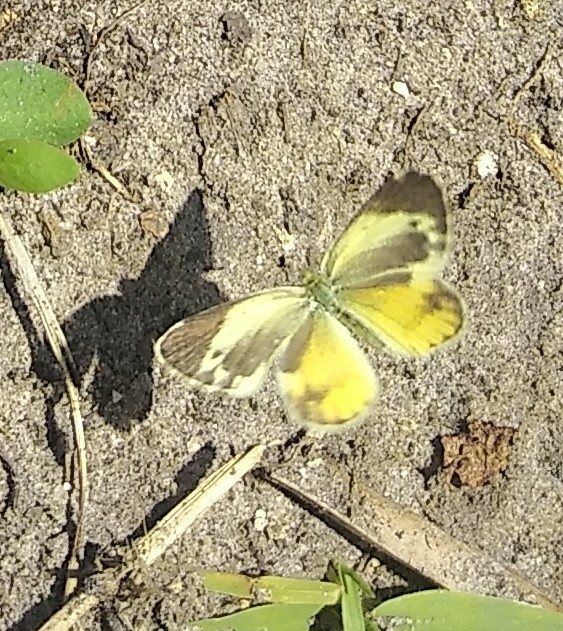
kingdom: Animalia
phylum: Arthropoda
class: Insecta
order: Lepidoptera
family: Pieridae
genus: Nathalis
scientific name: Nathalis iole
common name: Dainty sulphur
